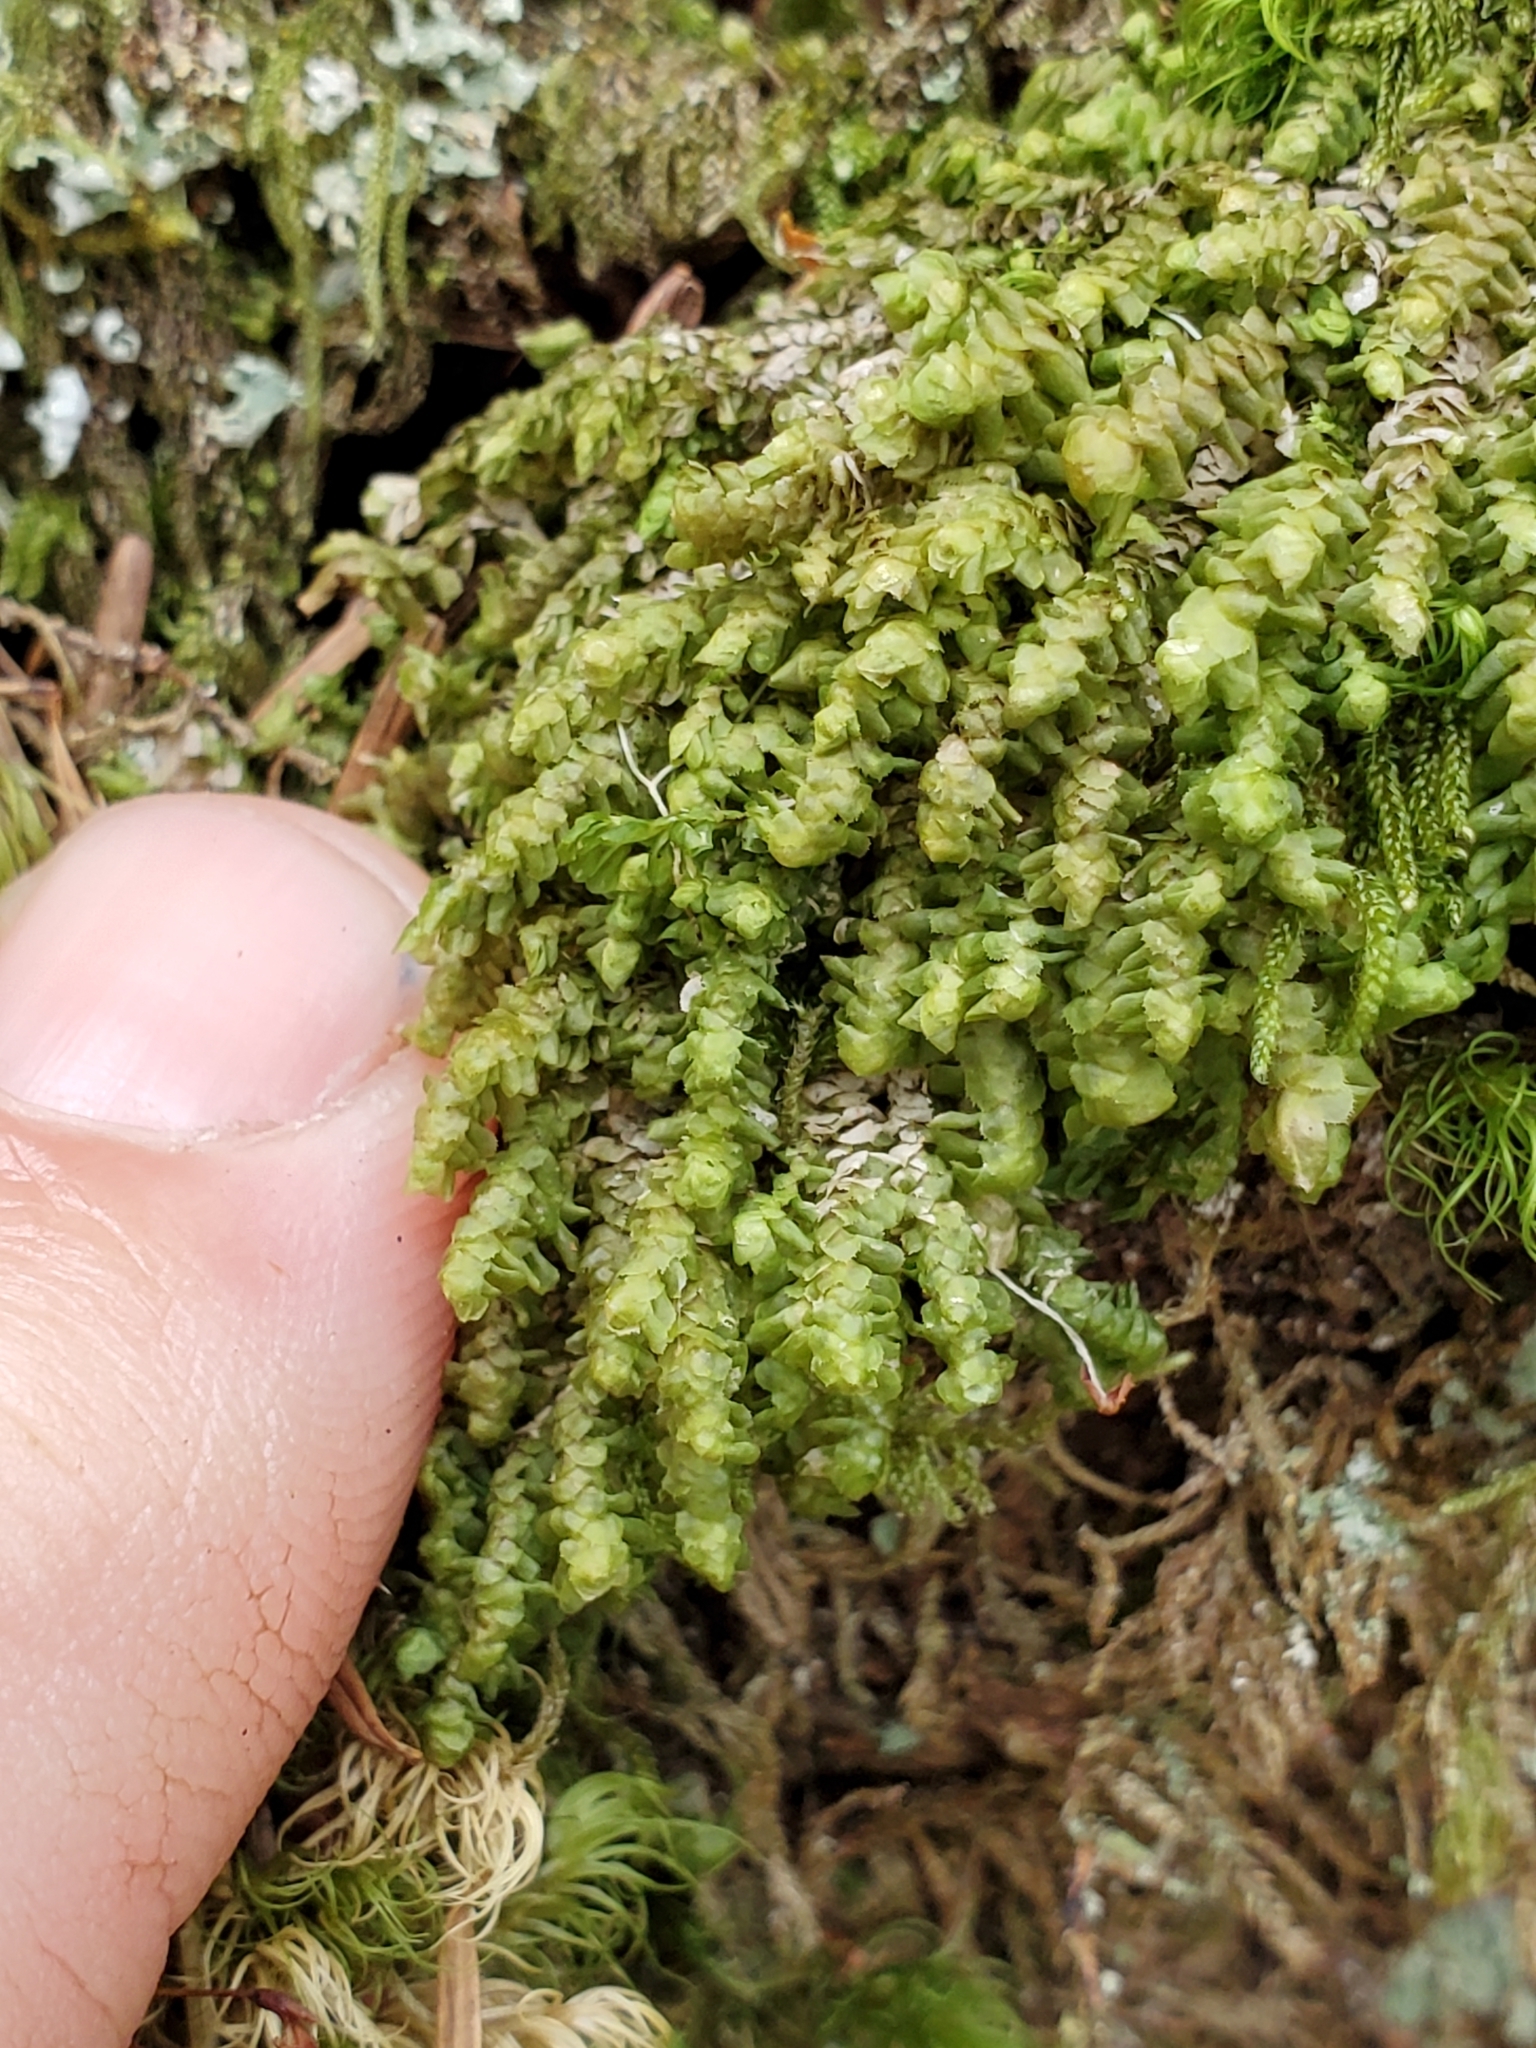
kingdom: Plantae
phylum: Marchantiophyta
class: Jungermanniopsida
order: Jungermanniales
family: Scapaniaceae
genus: Scapania
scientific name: Scapania bolanderi
